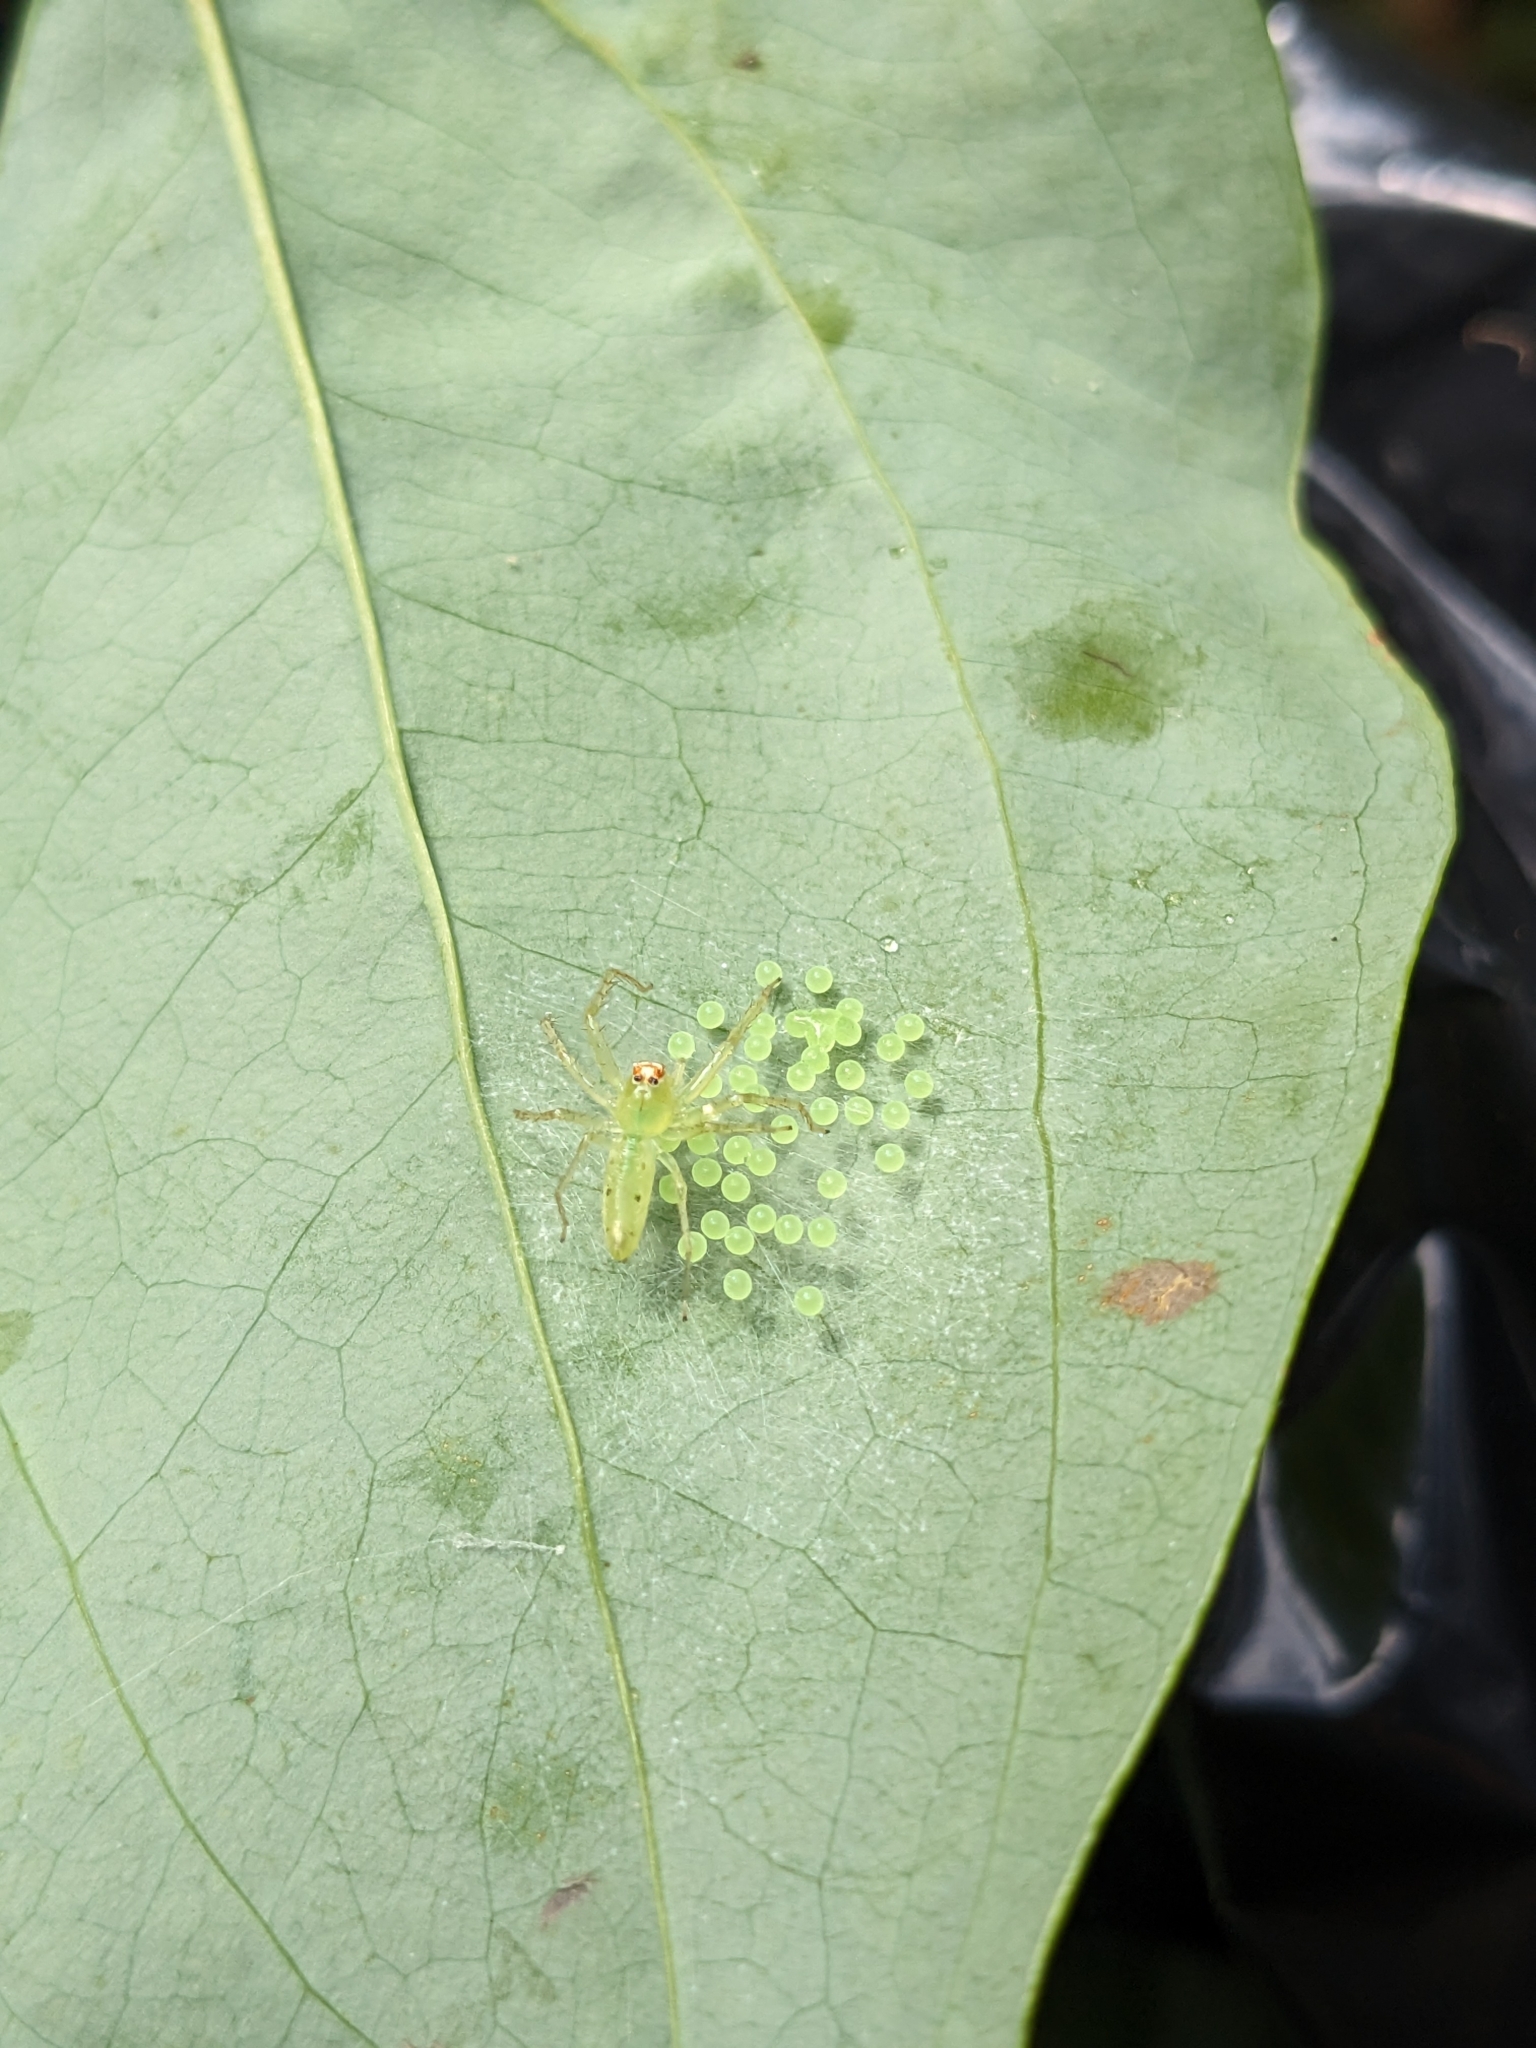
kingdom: Animalia
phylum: Arthropoda
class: Arachnida
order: Araneae
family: Salticidae
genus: Lyssomanes
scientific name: Lyssomanes viridis
